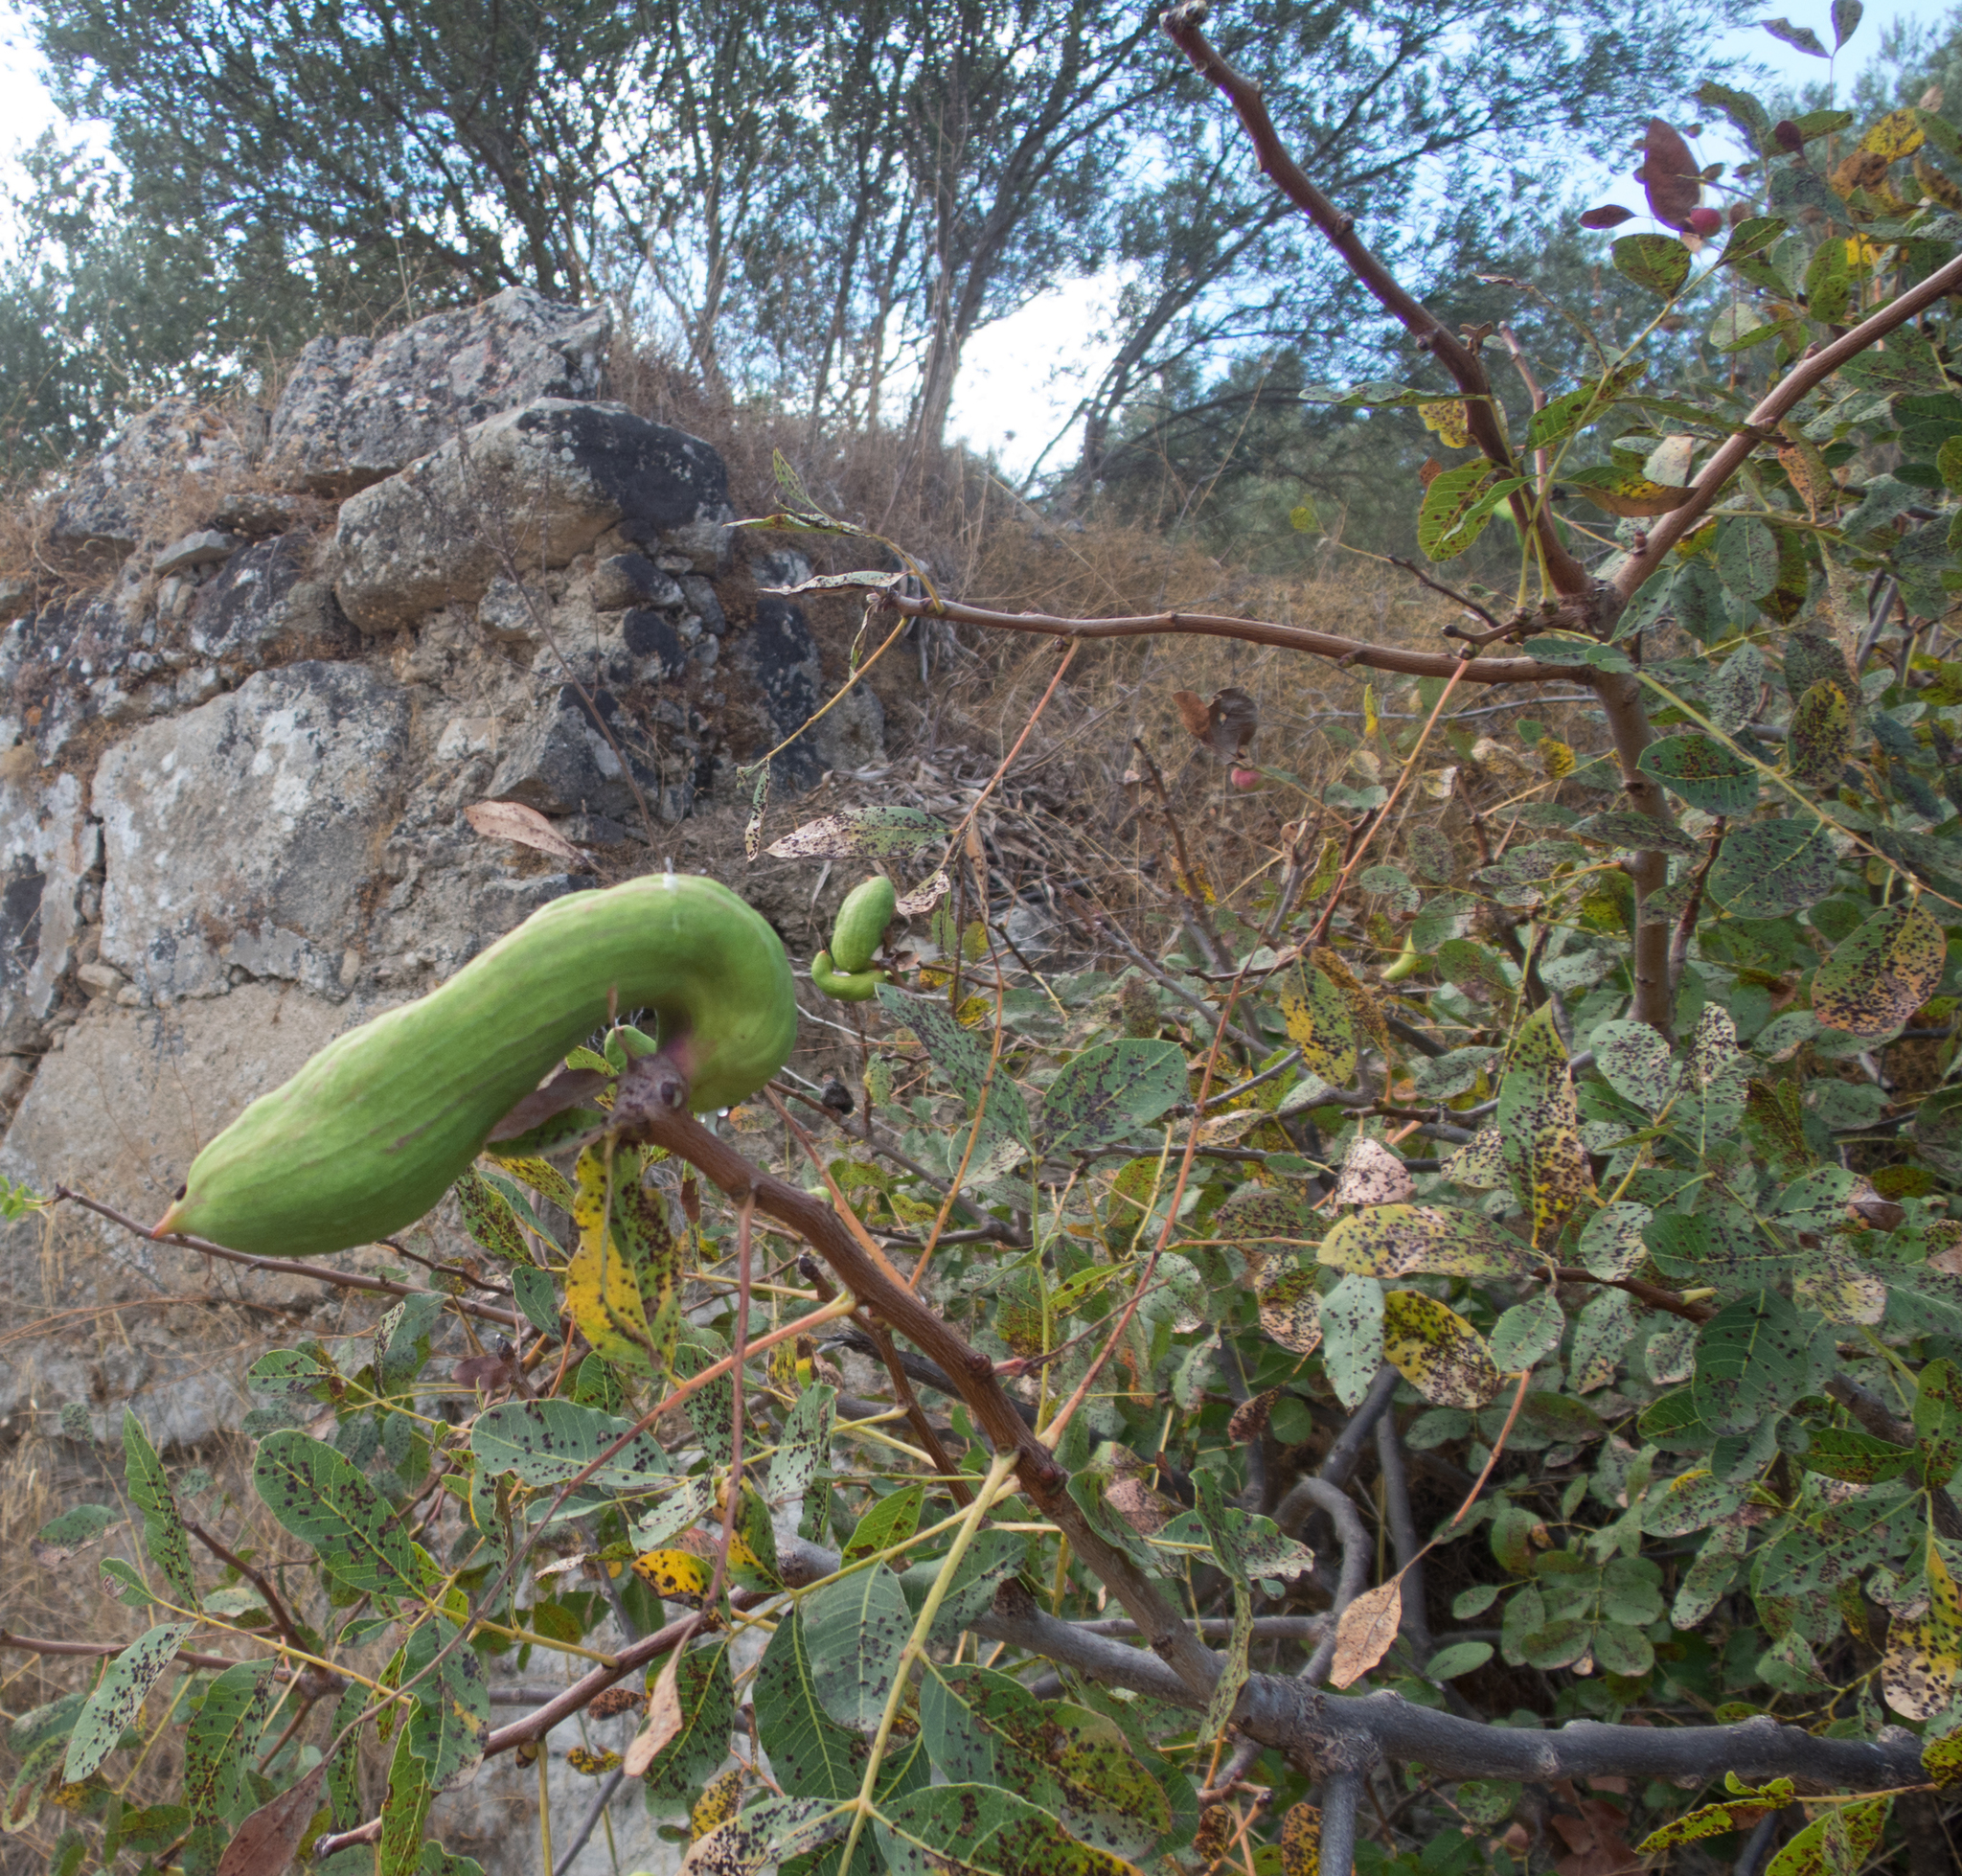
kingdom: Plantae
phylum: Tracheophyta
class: Magnoliopsida
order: Sapindales
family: Anacardiaceae
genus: Pistacia
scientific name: Pistacia terebinthus
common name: Terebinth
